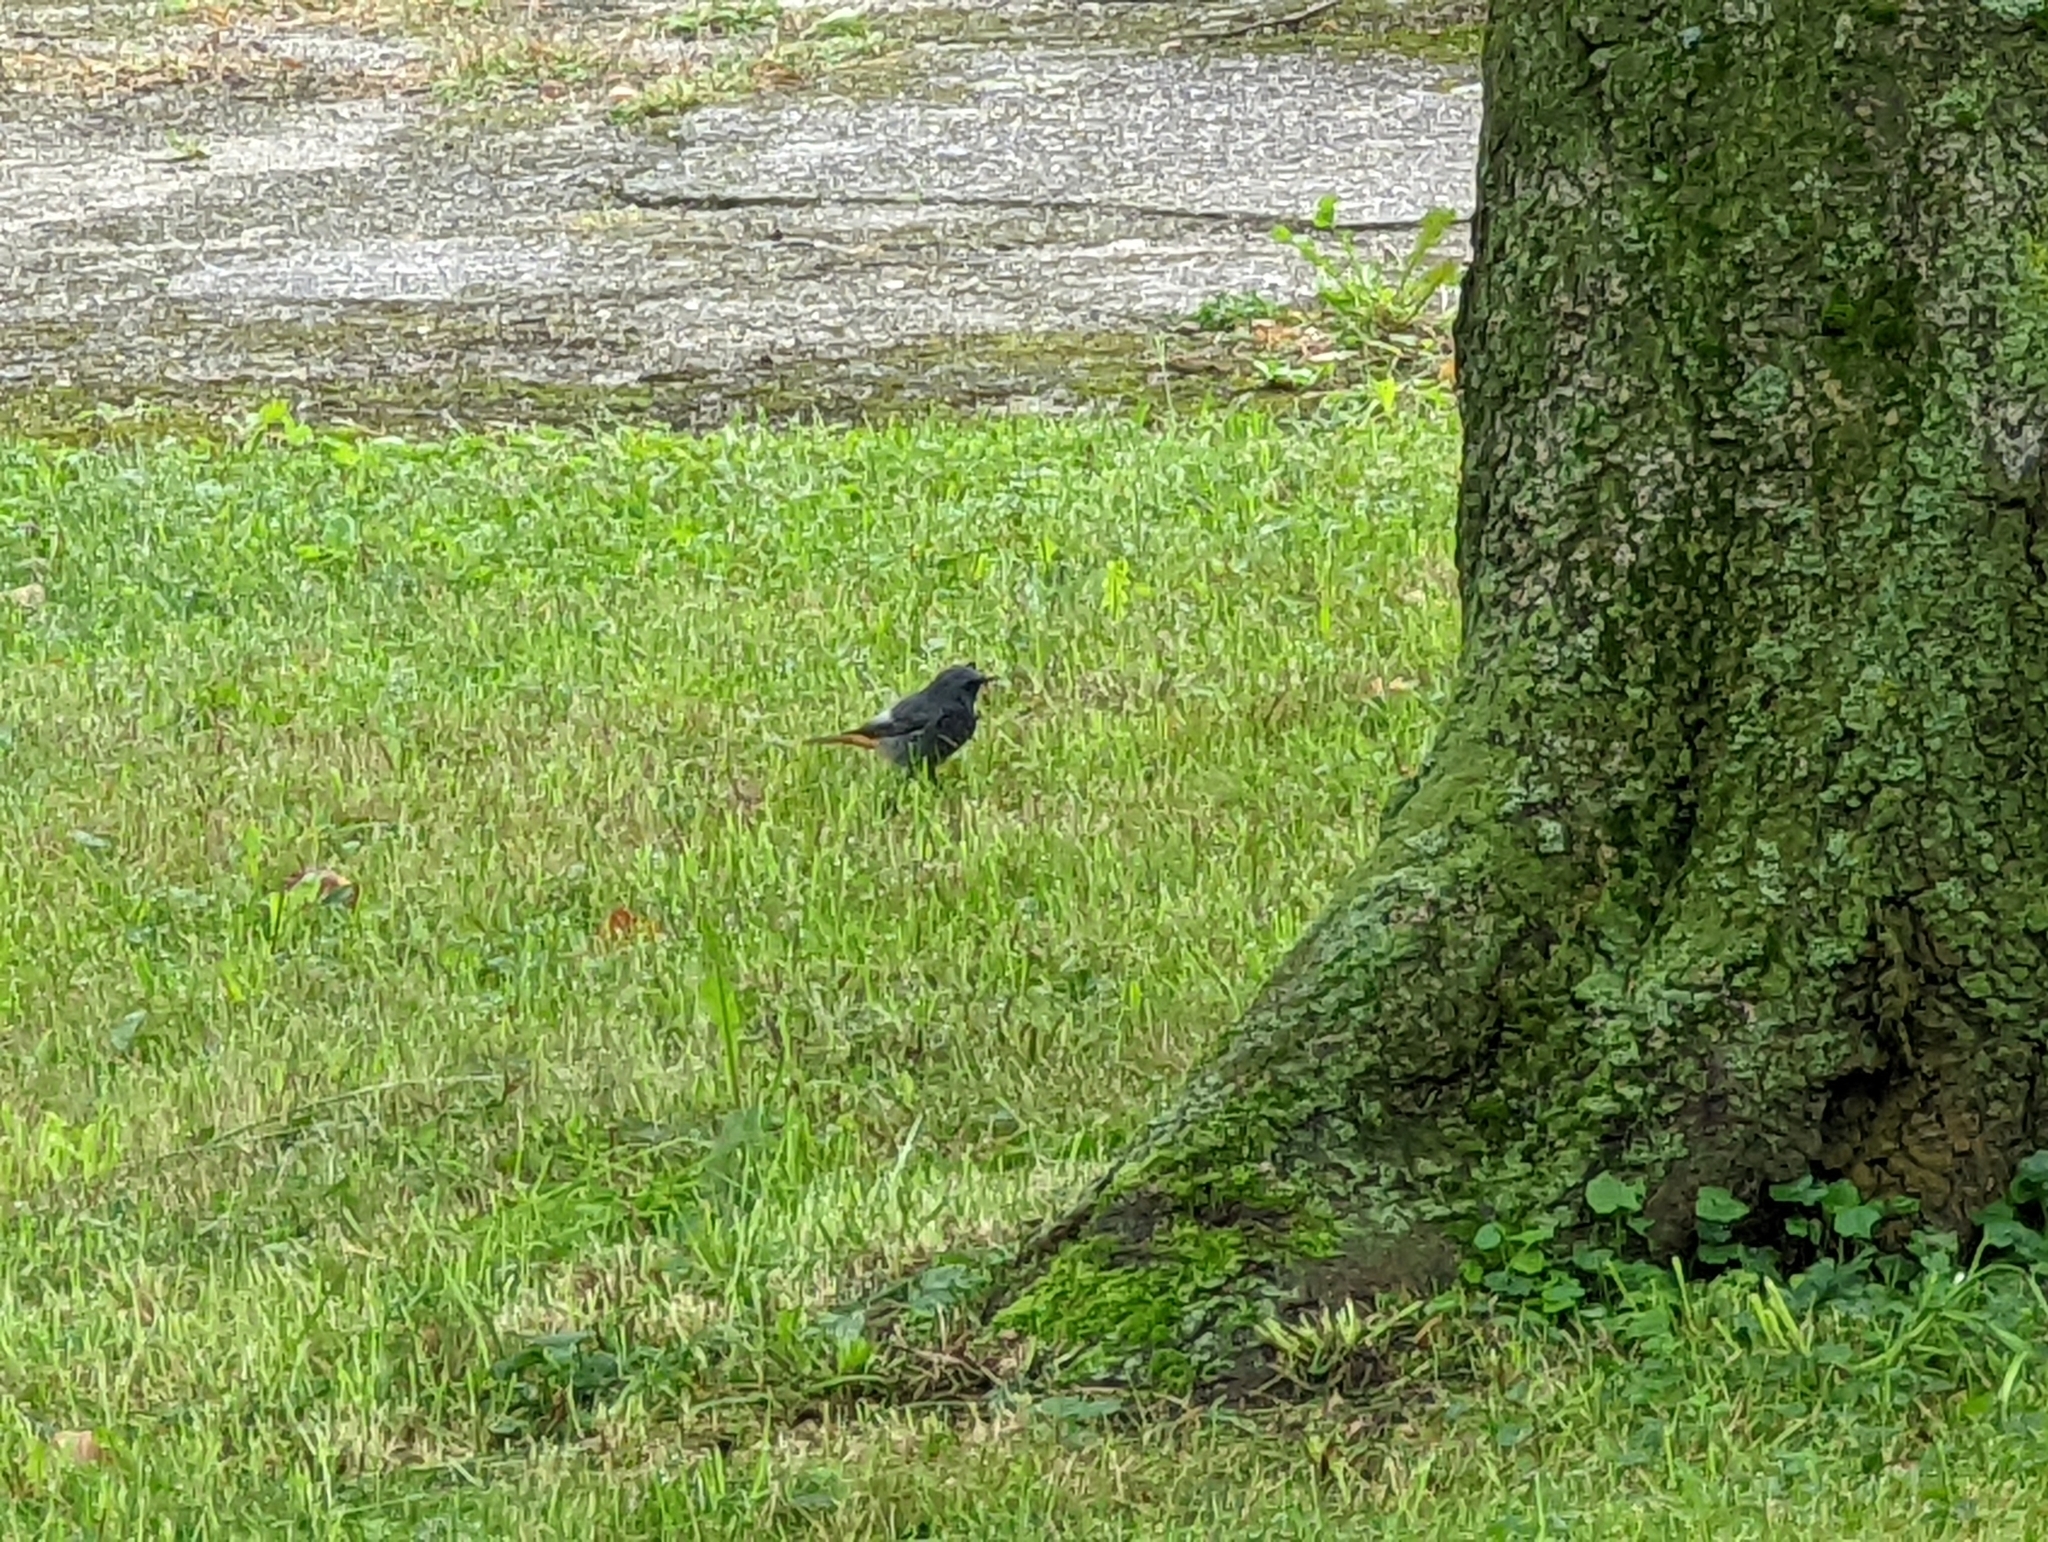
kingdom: Animalia
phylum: Chordata
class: Aves
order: Passeriformes
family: Muscicapidae
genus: Phoenicurus
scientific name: Phoenicurus ochruros
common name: Black redstart
